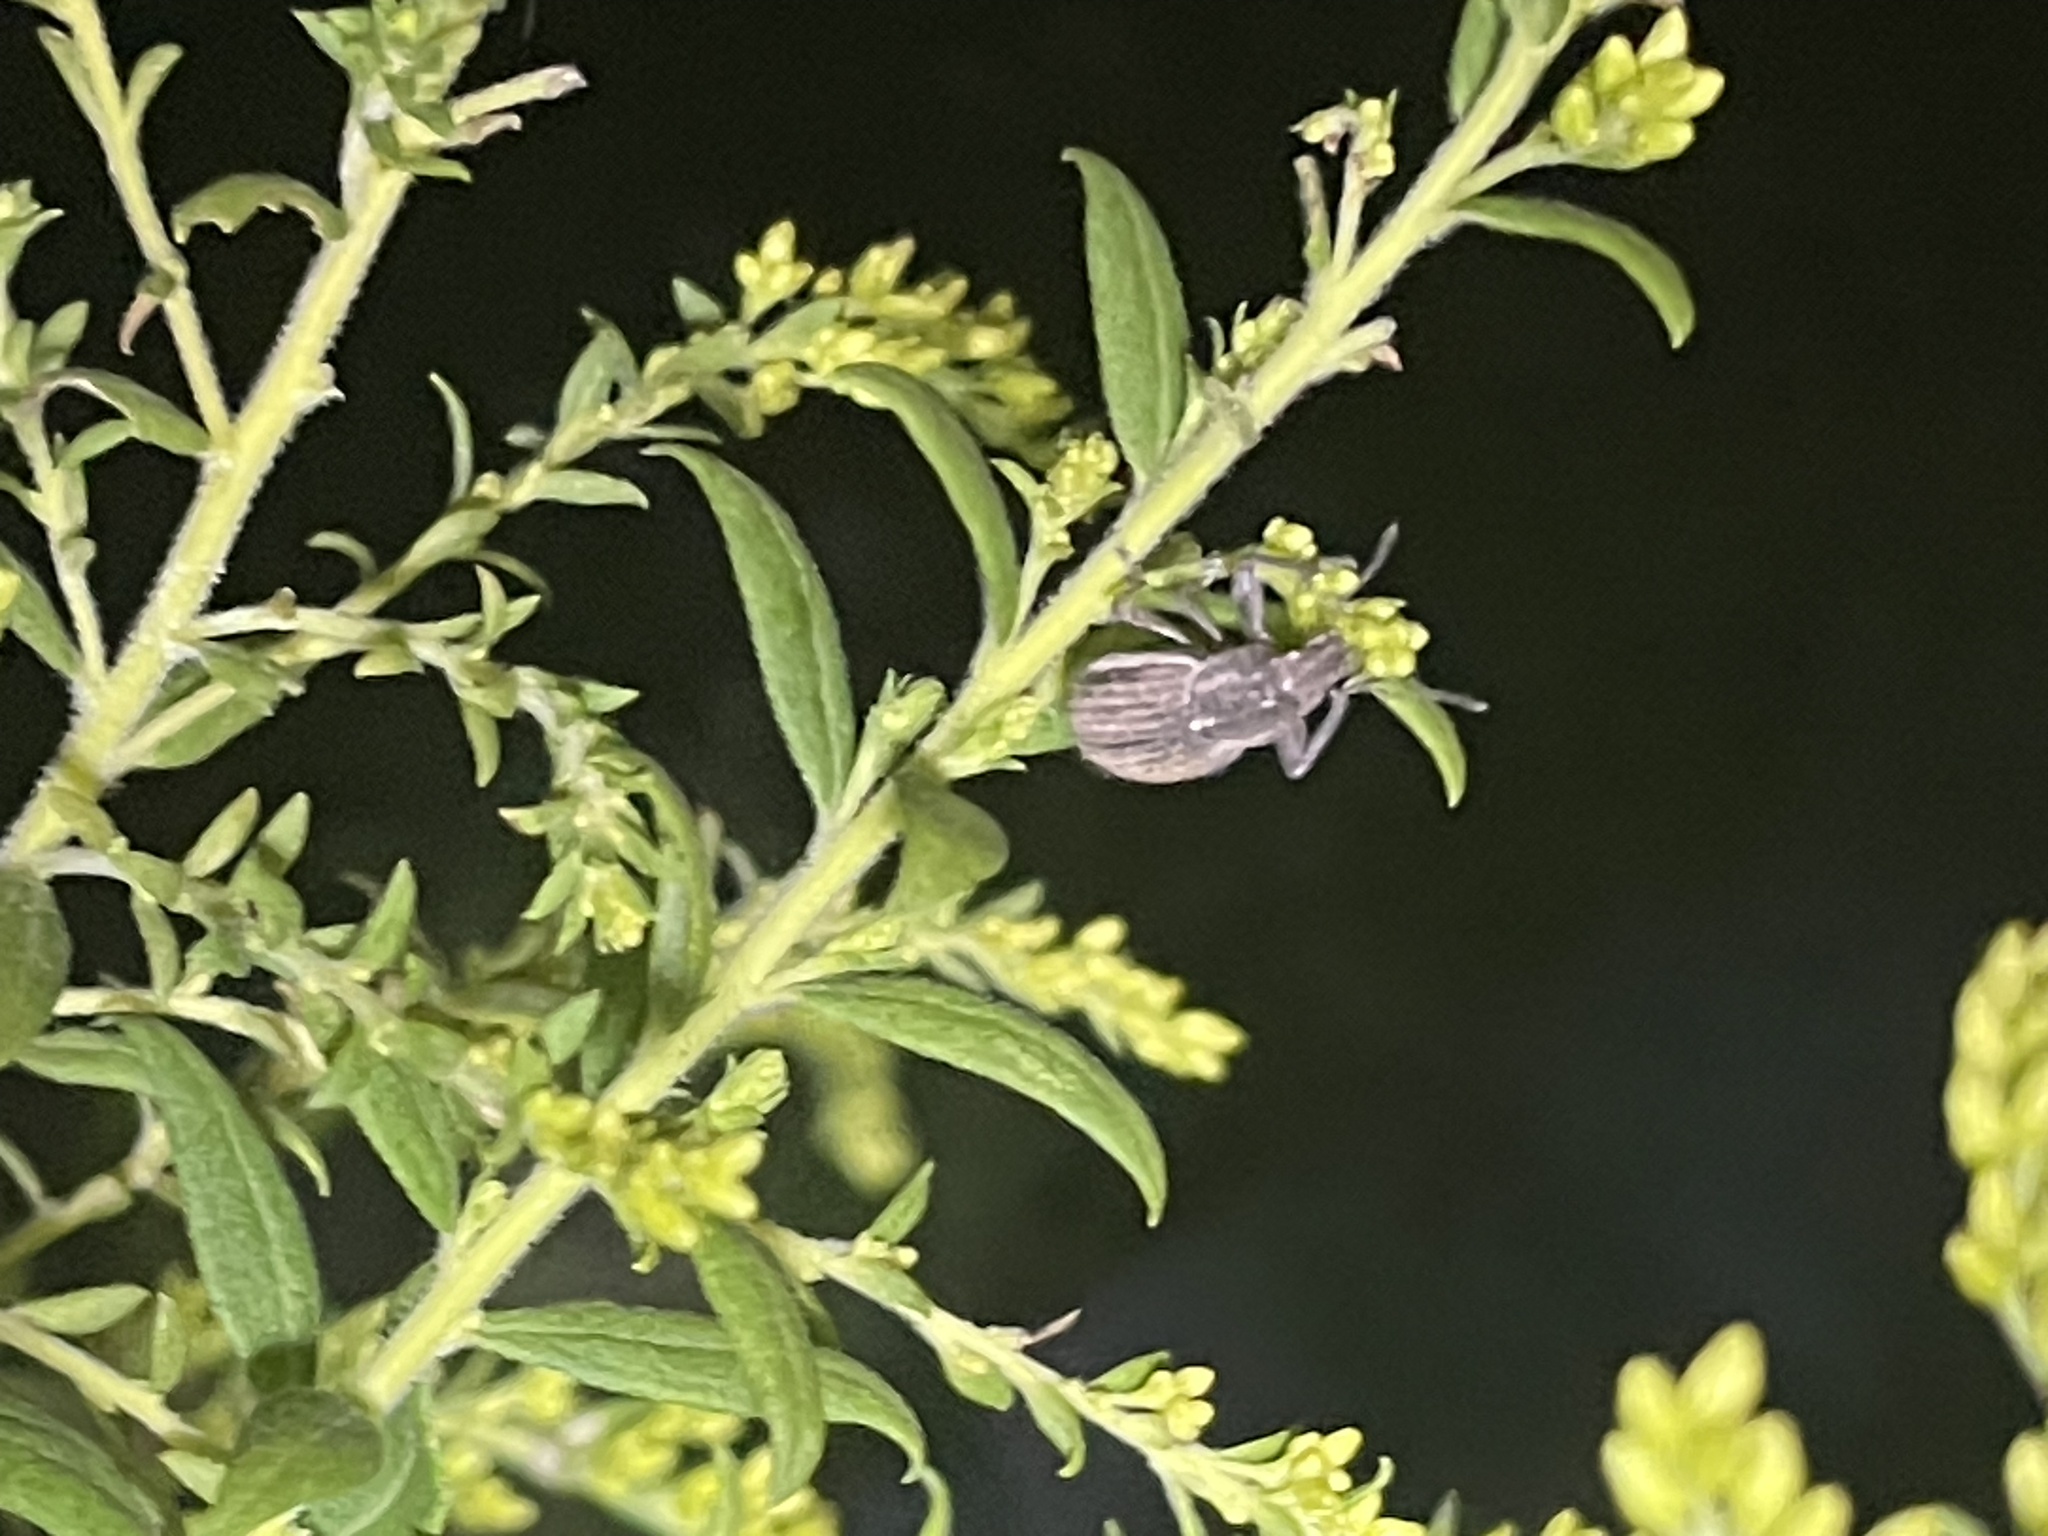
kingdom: Animalia
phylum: Arthropoda
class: Insecta
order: Coleoptera
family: Curculionidae
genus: Naupactus
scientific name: Naupactus leucoloma
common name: Whitefringed beetle
